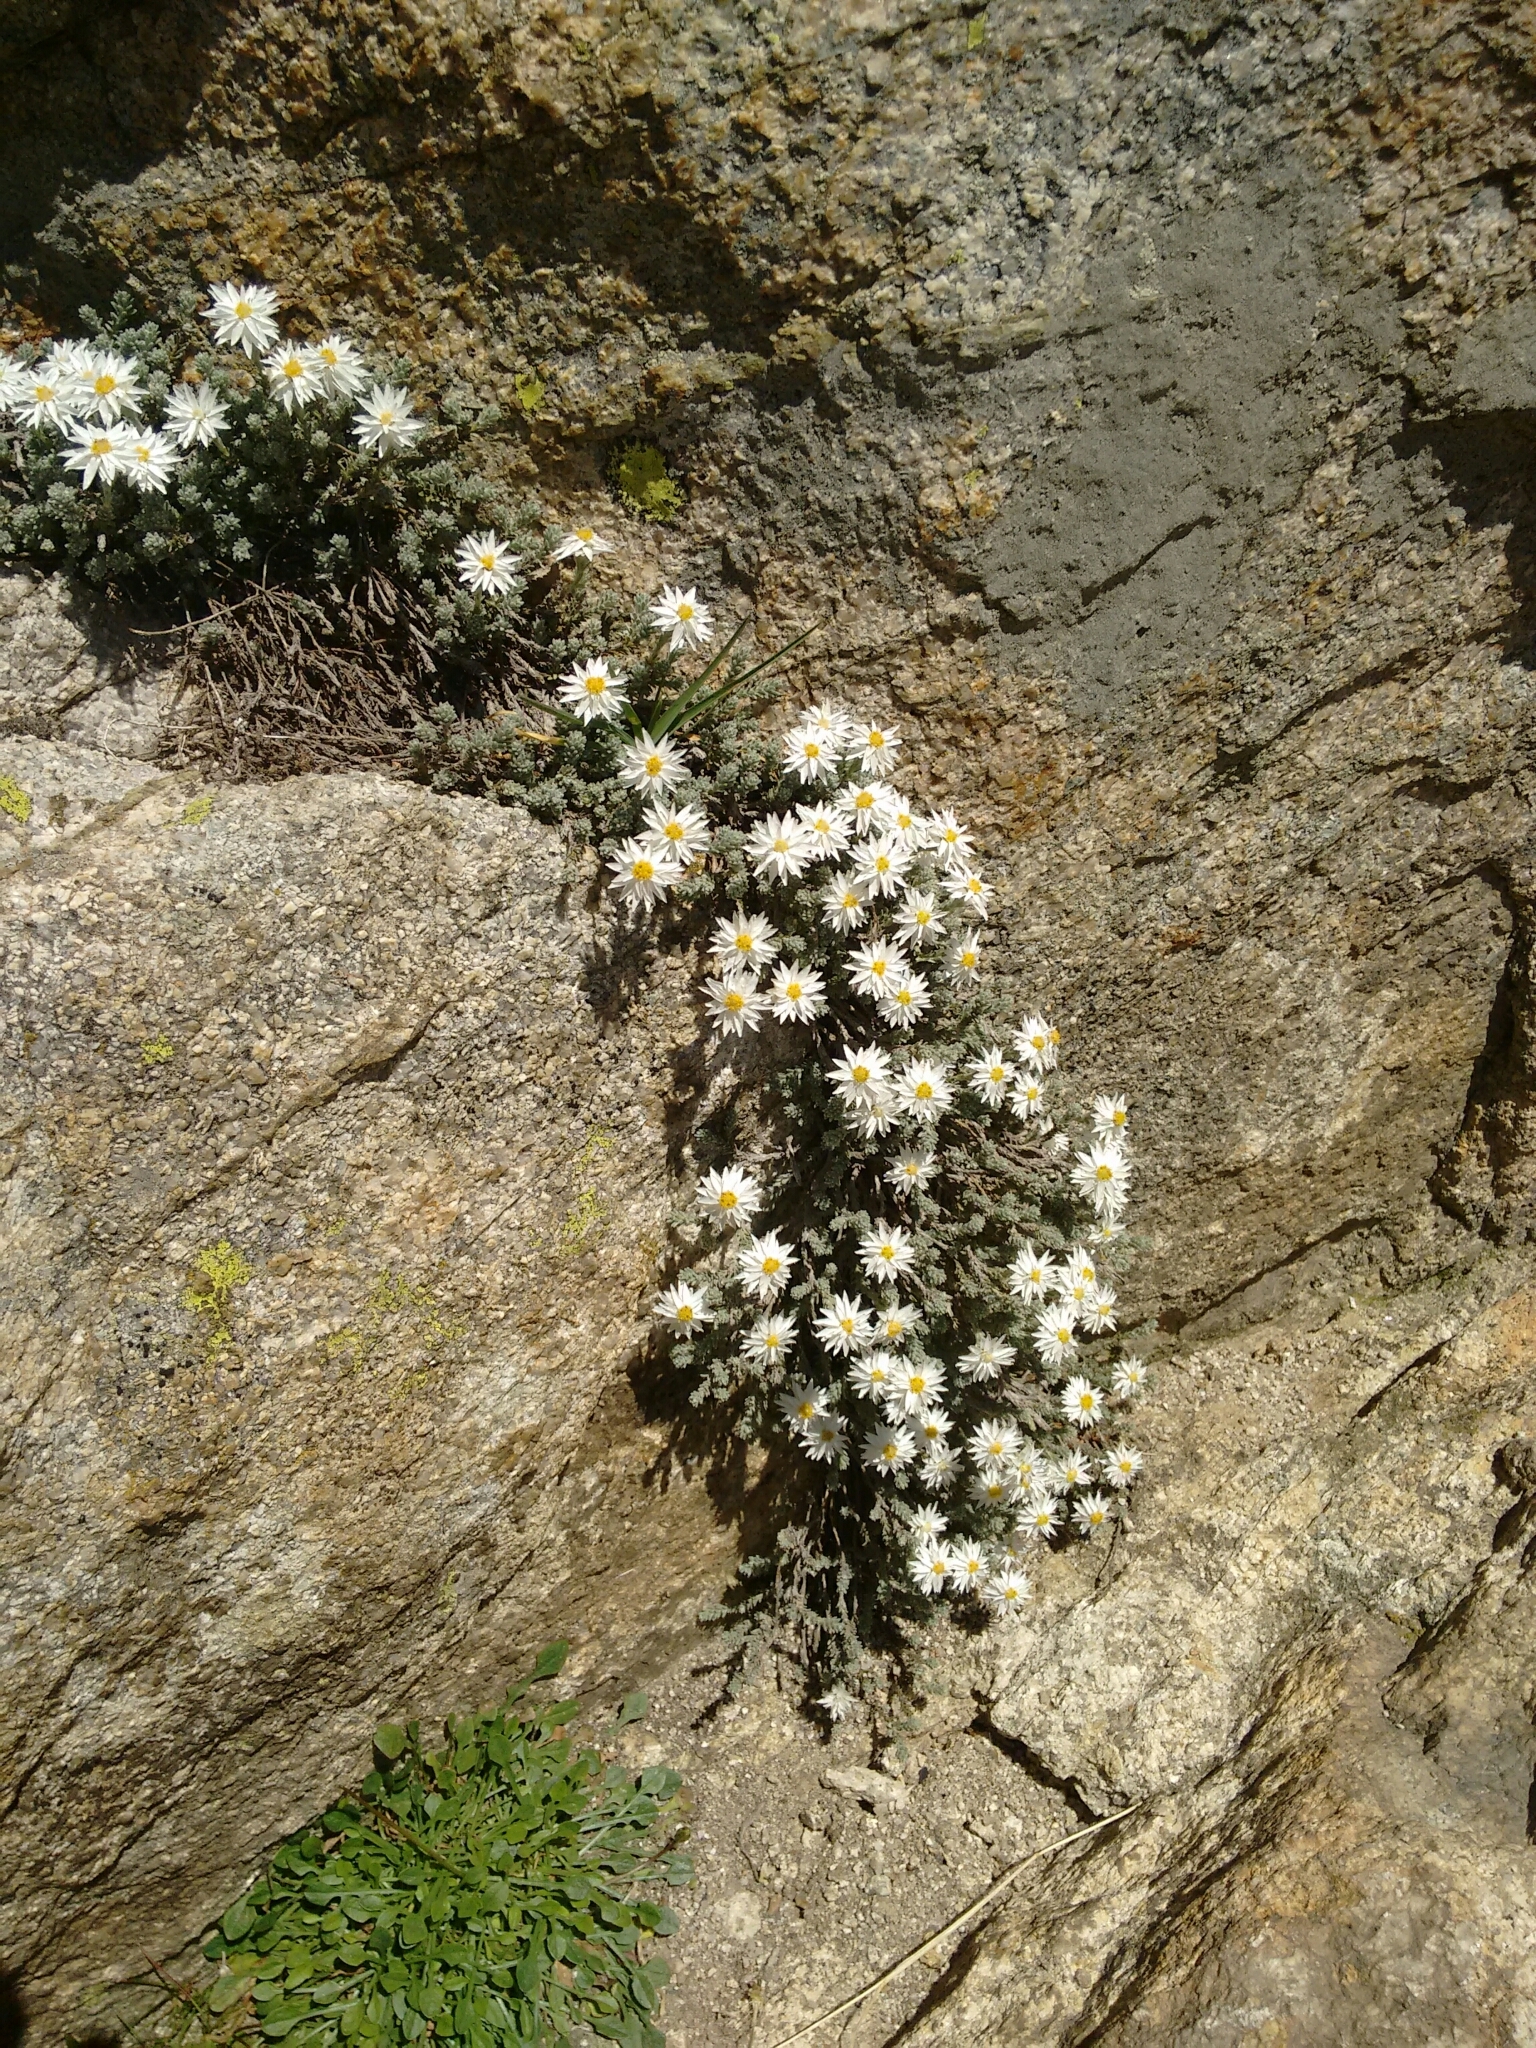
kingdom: Plantae
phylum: Tracheophyta
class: Magnoliopsida
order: Asterales
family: Asteraceae
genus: Castroviejoa
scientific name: Castroviejoa frigida
